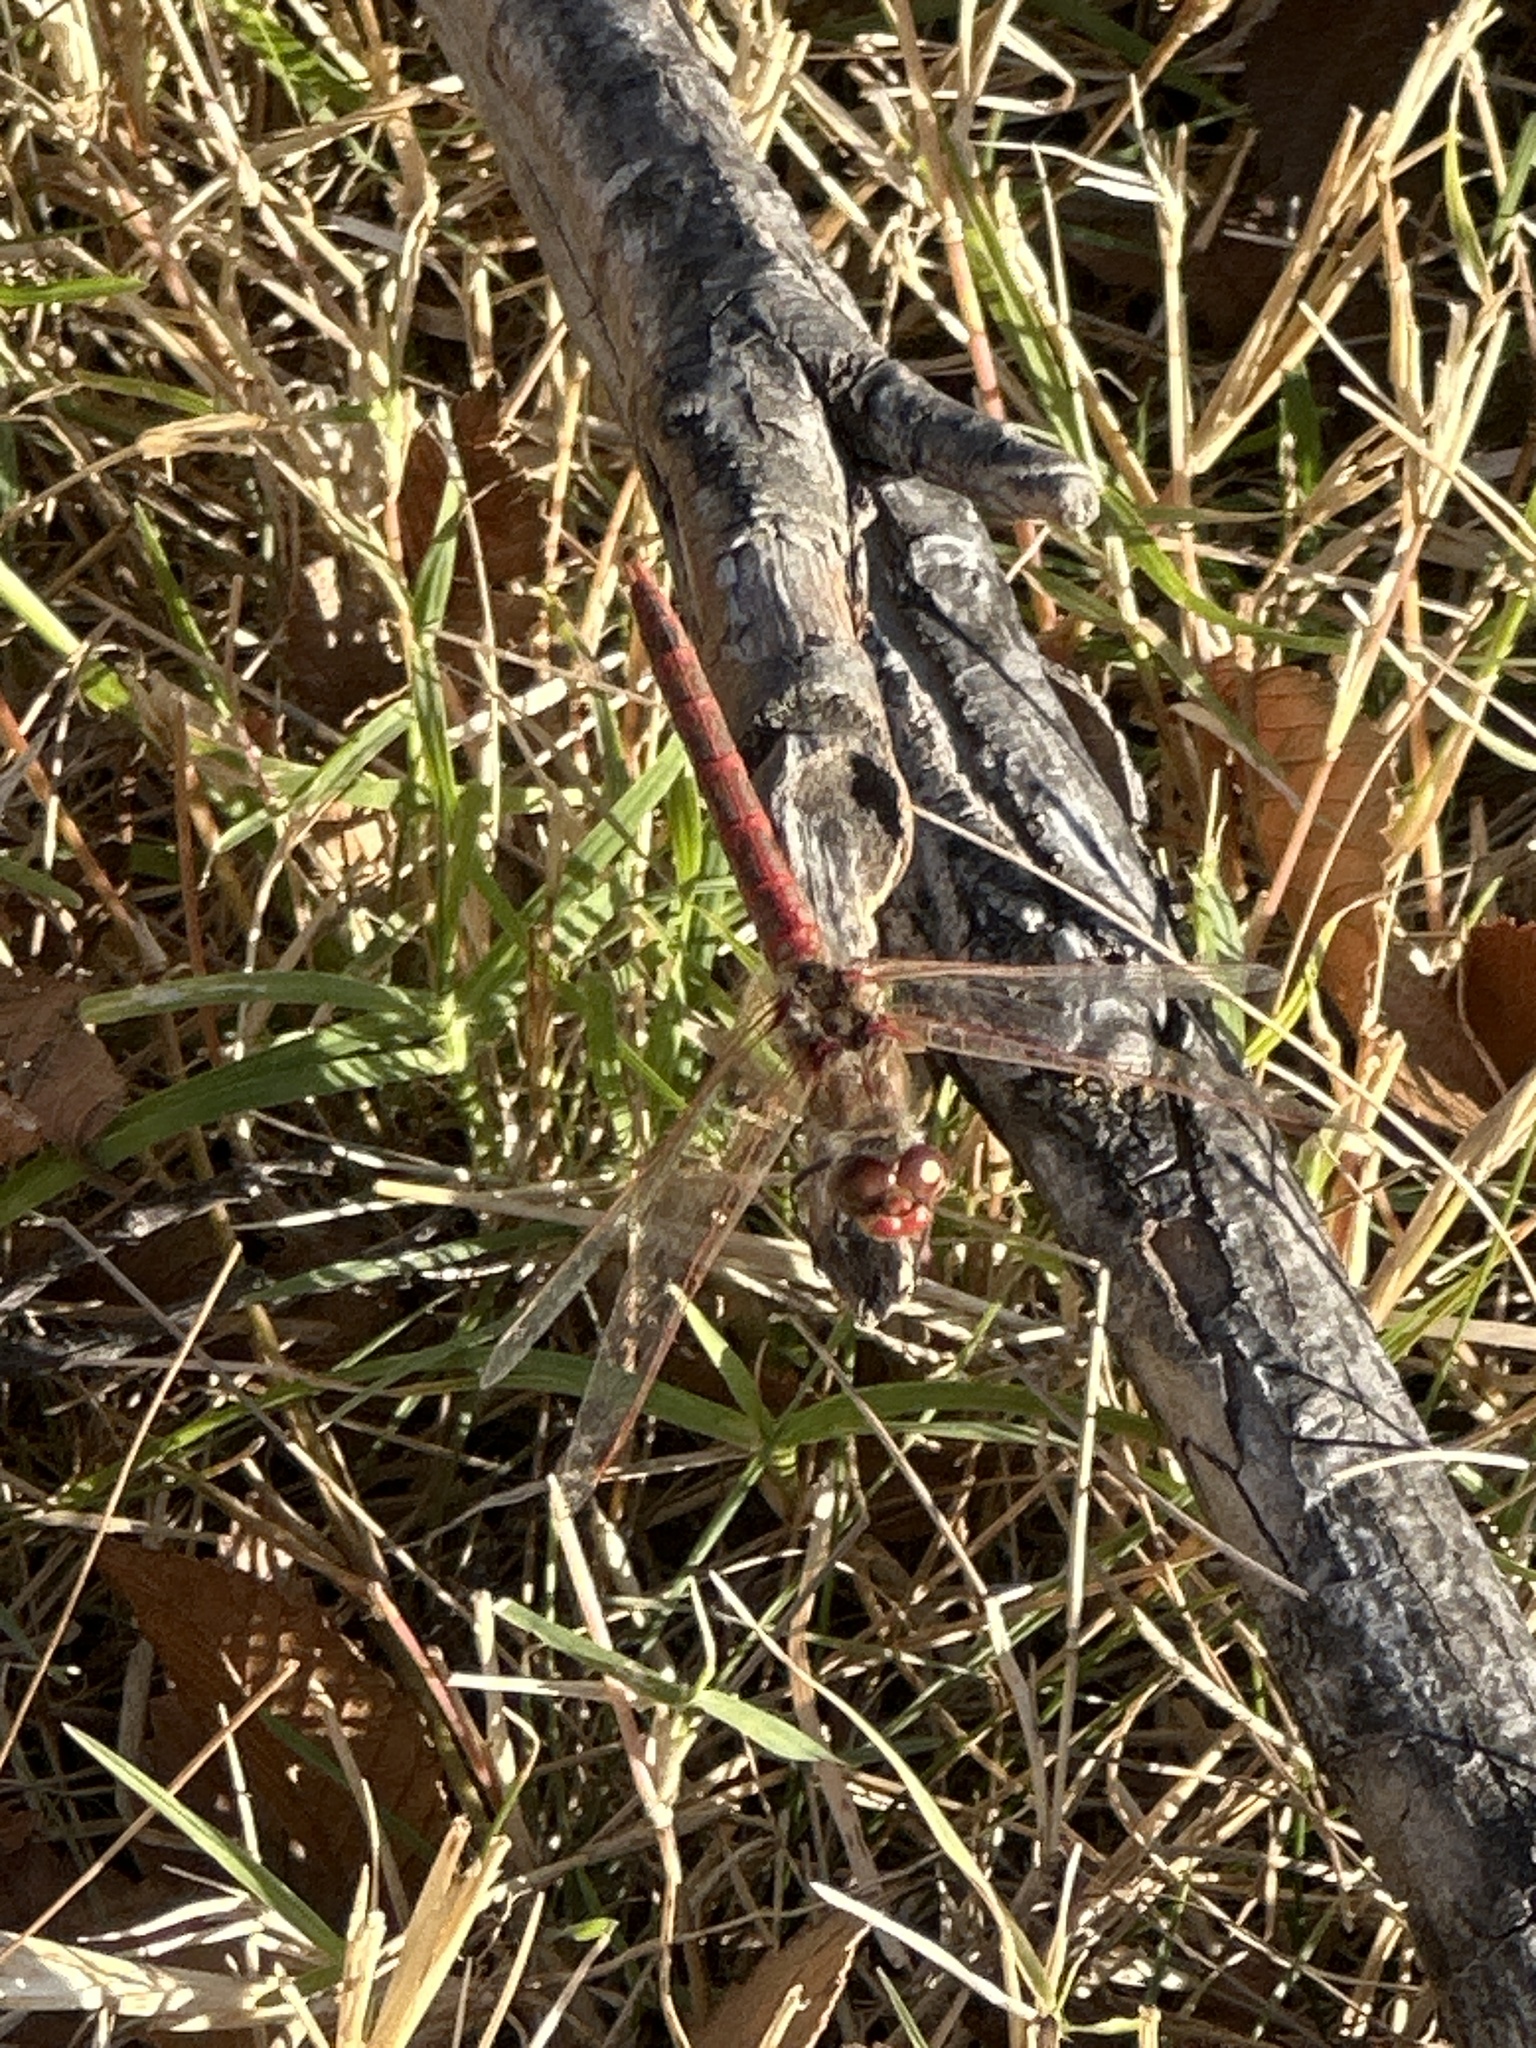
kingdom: Animalia
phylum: Arthropoda
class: Insecta
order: Odonata
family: Libellulidae
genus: Sympetrum
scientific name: Sympetrum corruptum
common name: Variegated meadowhawk
